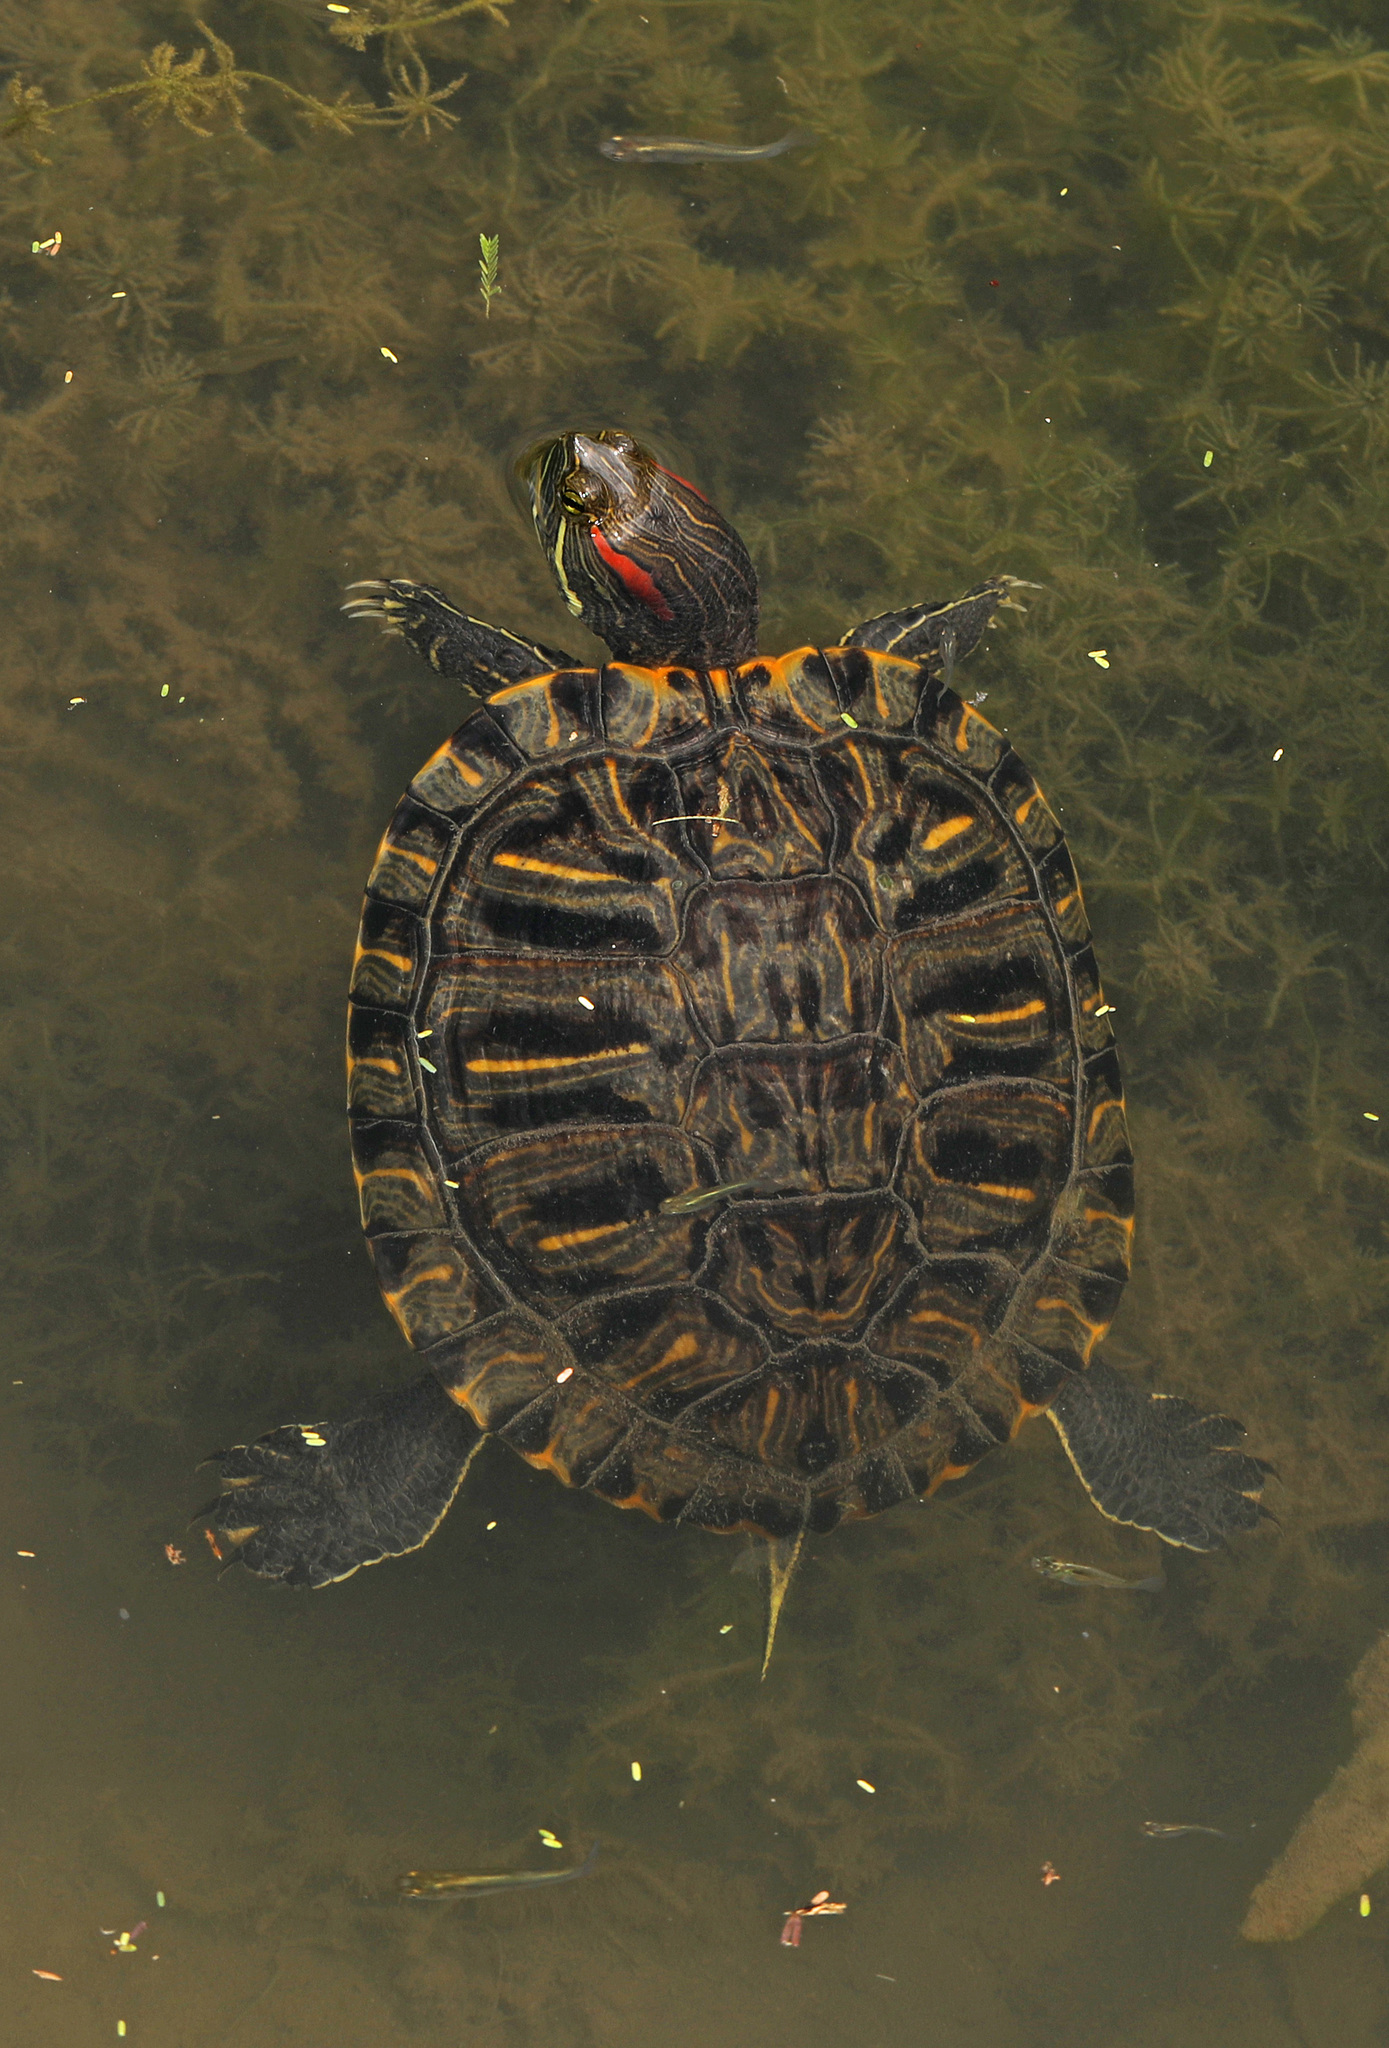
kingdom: Animalia
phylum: Chordata
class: Testudines
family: Emydidae
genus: Trachemys
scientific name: Trachemys scripta
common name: Slider
